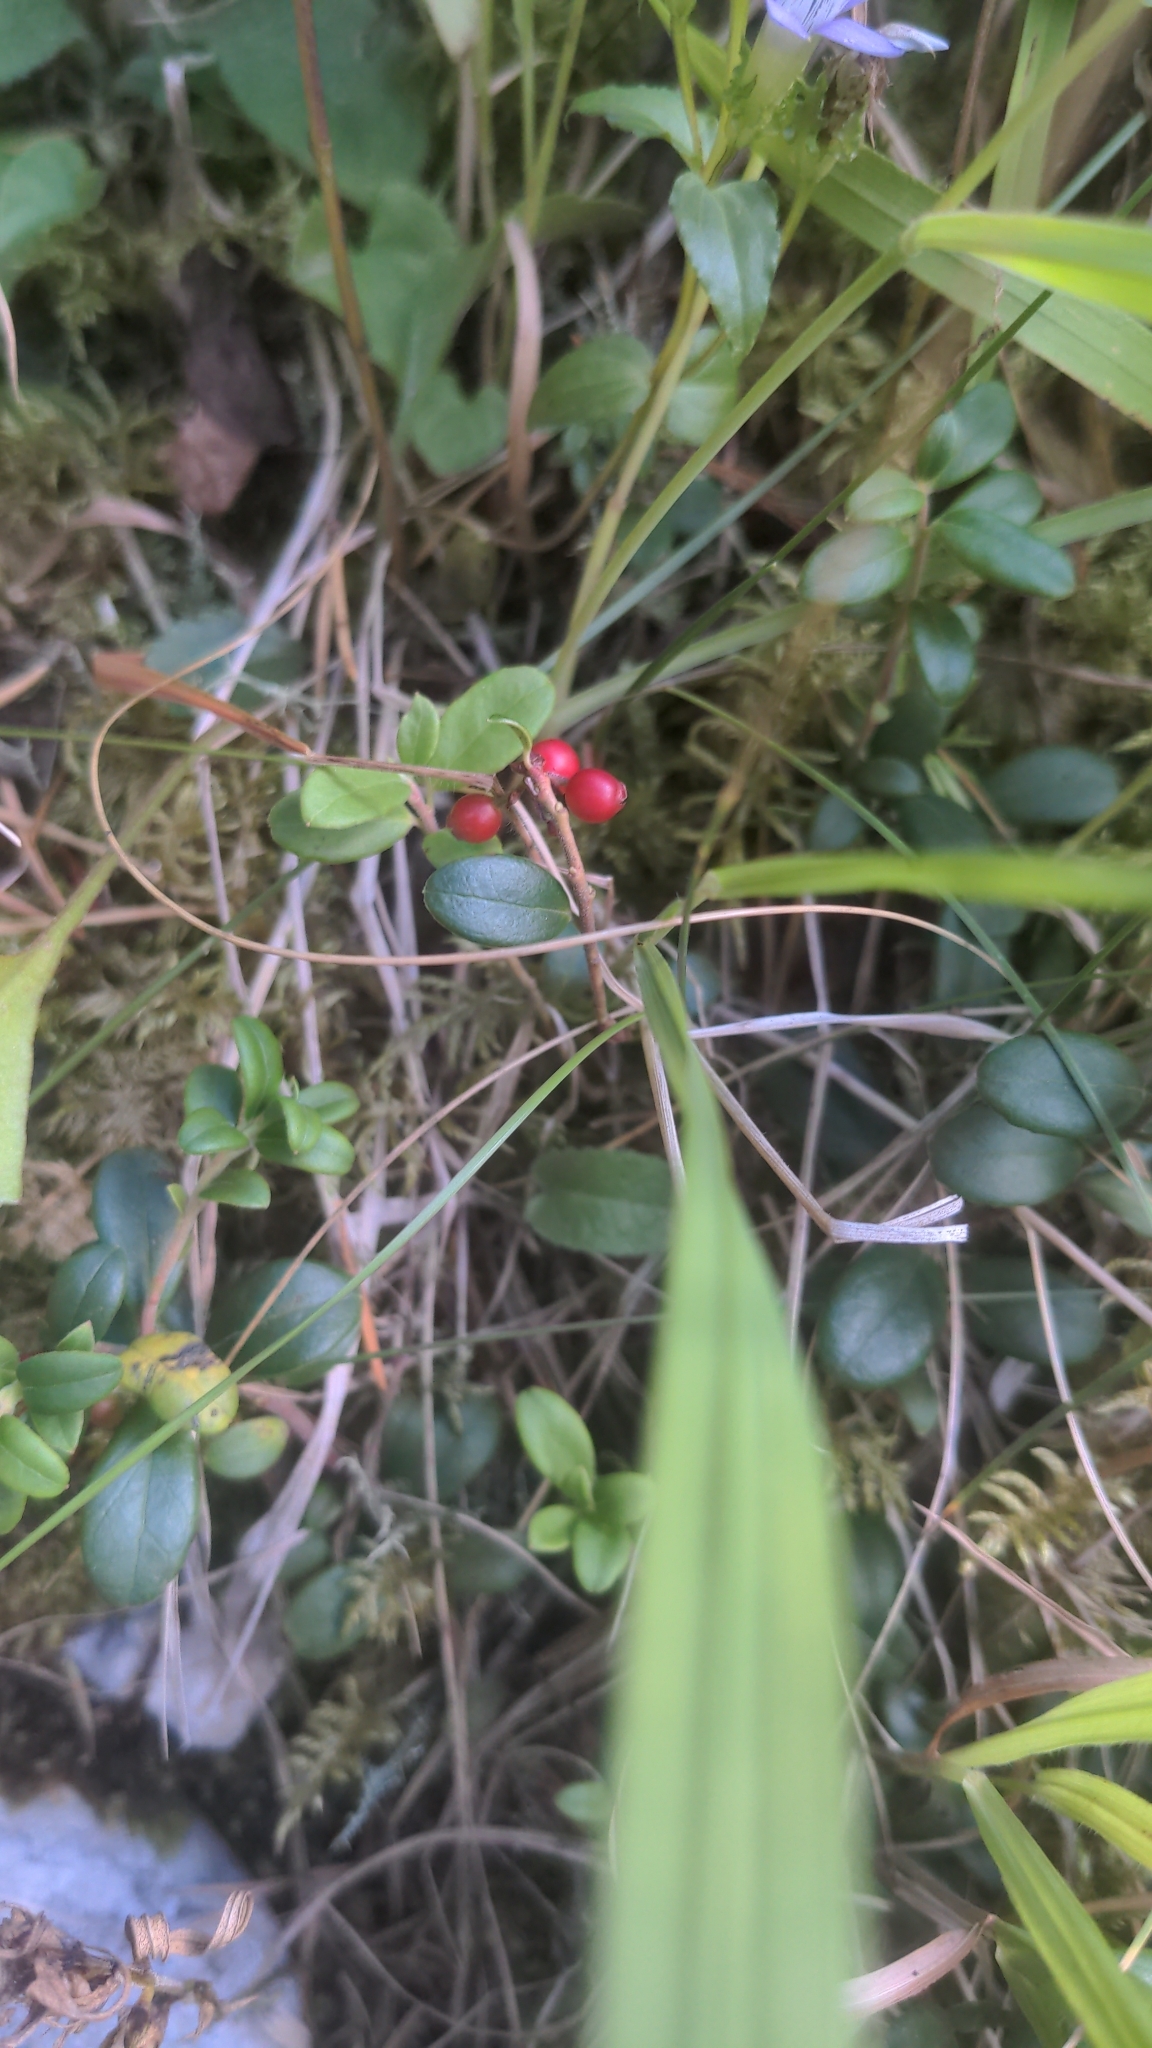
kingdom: Plantae
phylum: Tracheophyta
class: Magnoliopsida
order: Ericales
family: Ericaceae
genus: Vaccinium
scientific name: Vaccinium vitis-idaea
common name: Cowberry
